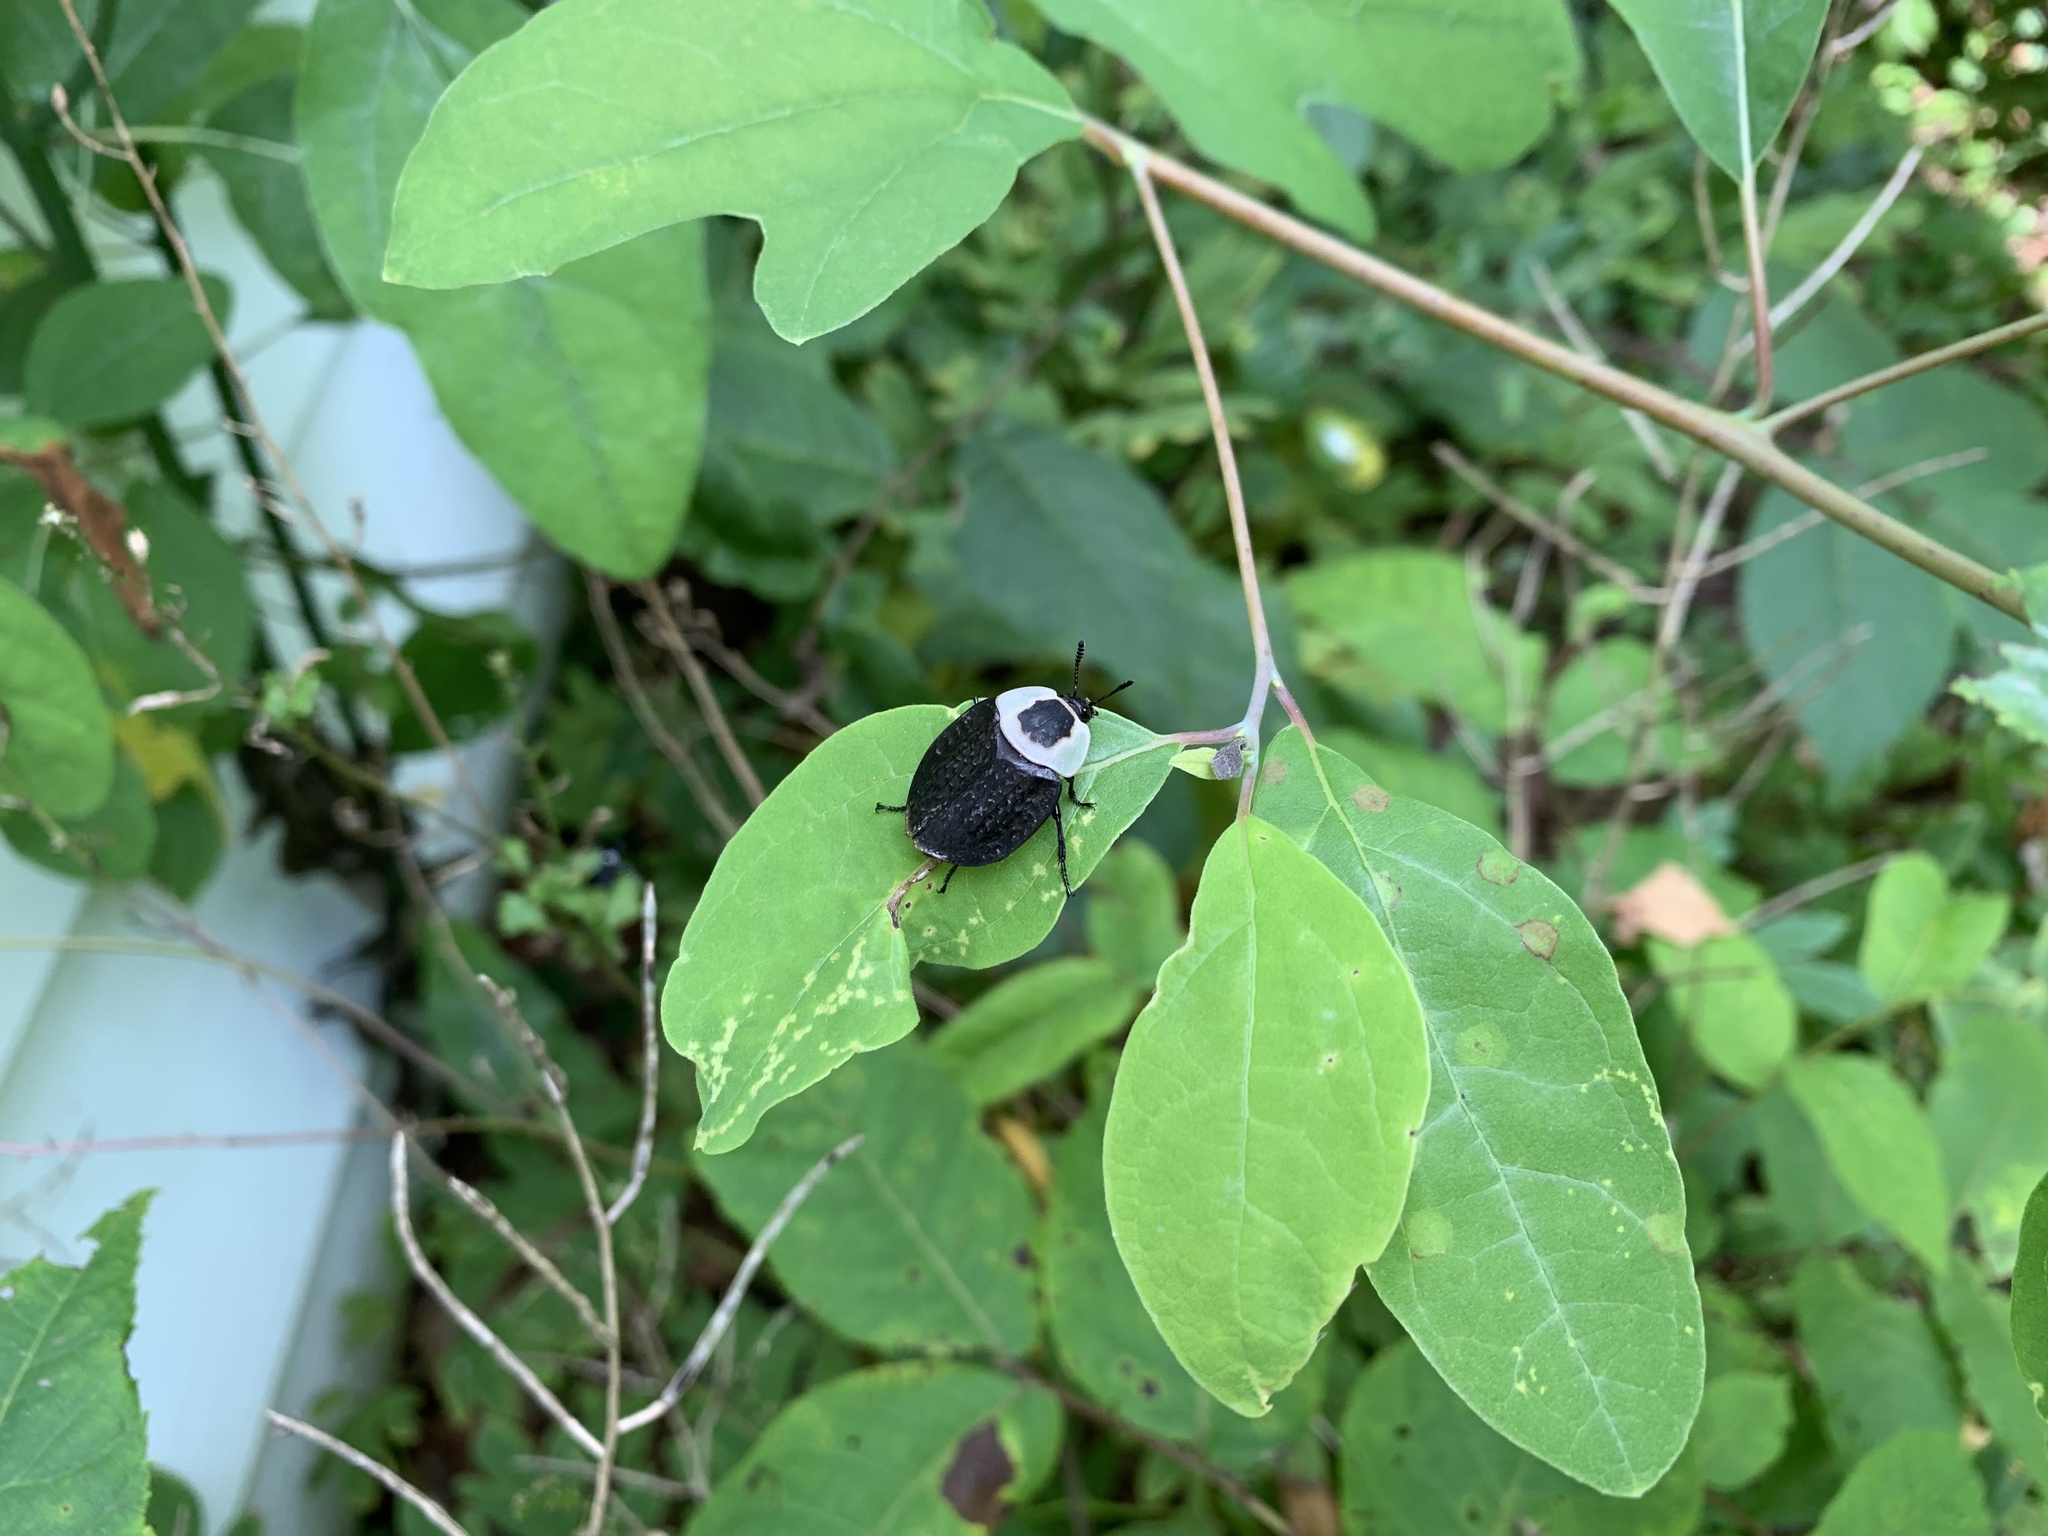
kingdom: Animalia
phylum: Arthropoda
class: Insecta
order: Coleoptera
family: Staphylinidae
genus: Necrophila
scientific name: Necrophila americana
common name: American carrion beetle
